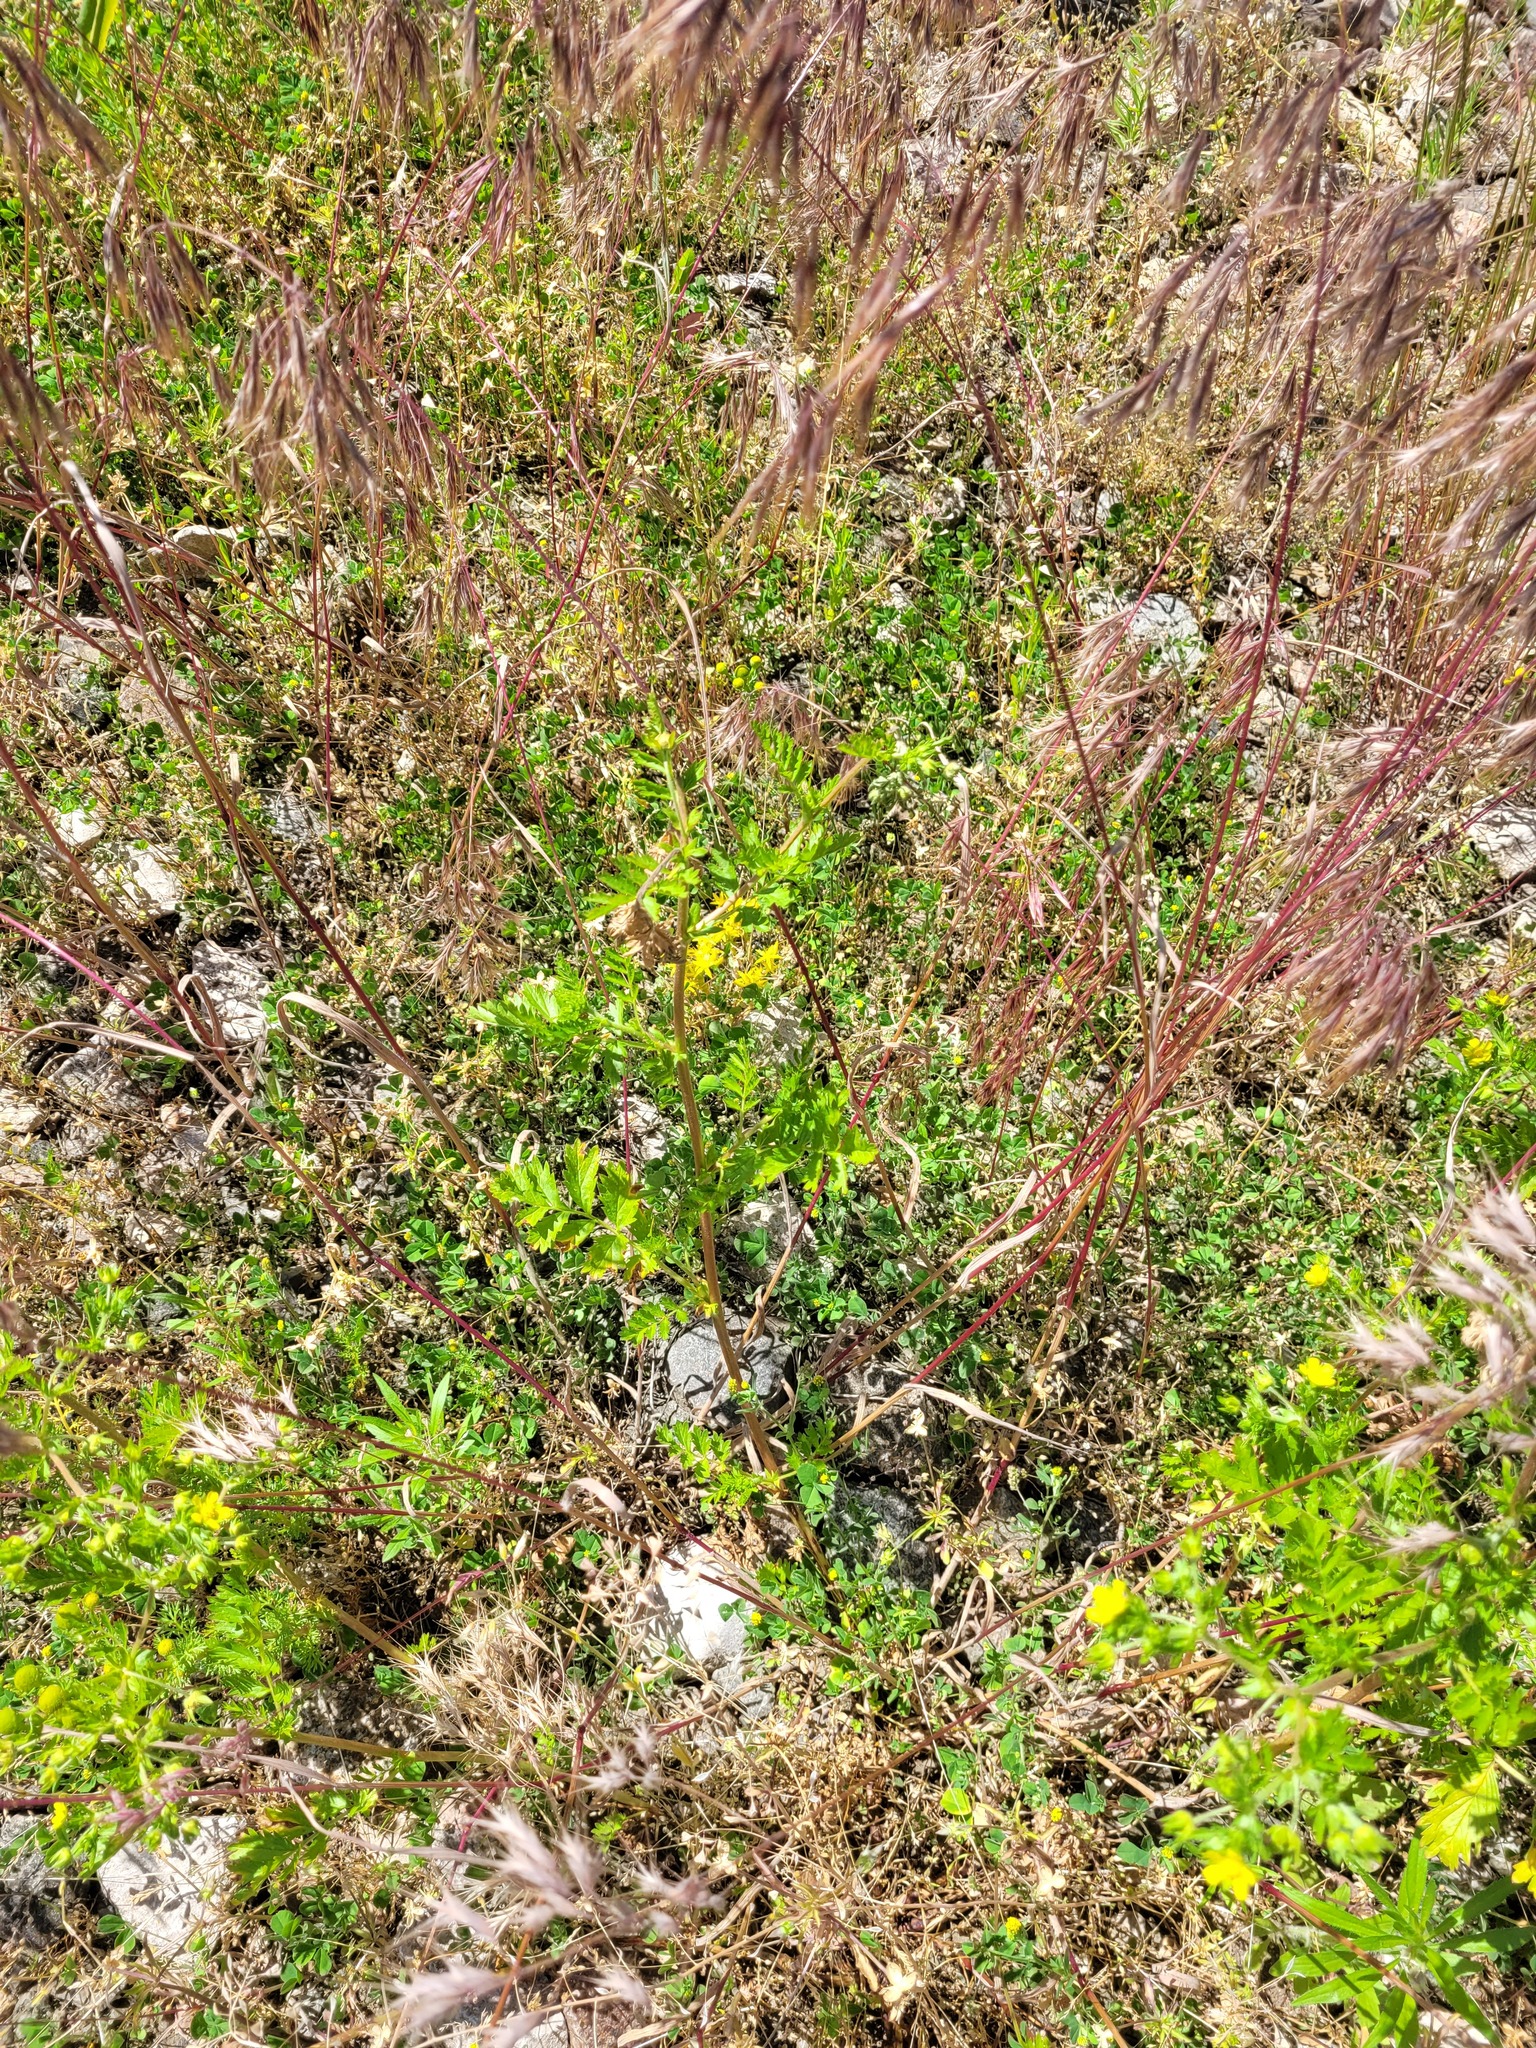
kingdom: Plantae
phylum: Tracheophyta
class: Magnoliopsida
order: Rosales
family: Rosaceae
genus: Potentilla
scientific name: Potentilla supina
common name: Prostrate cinquefoil
